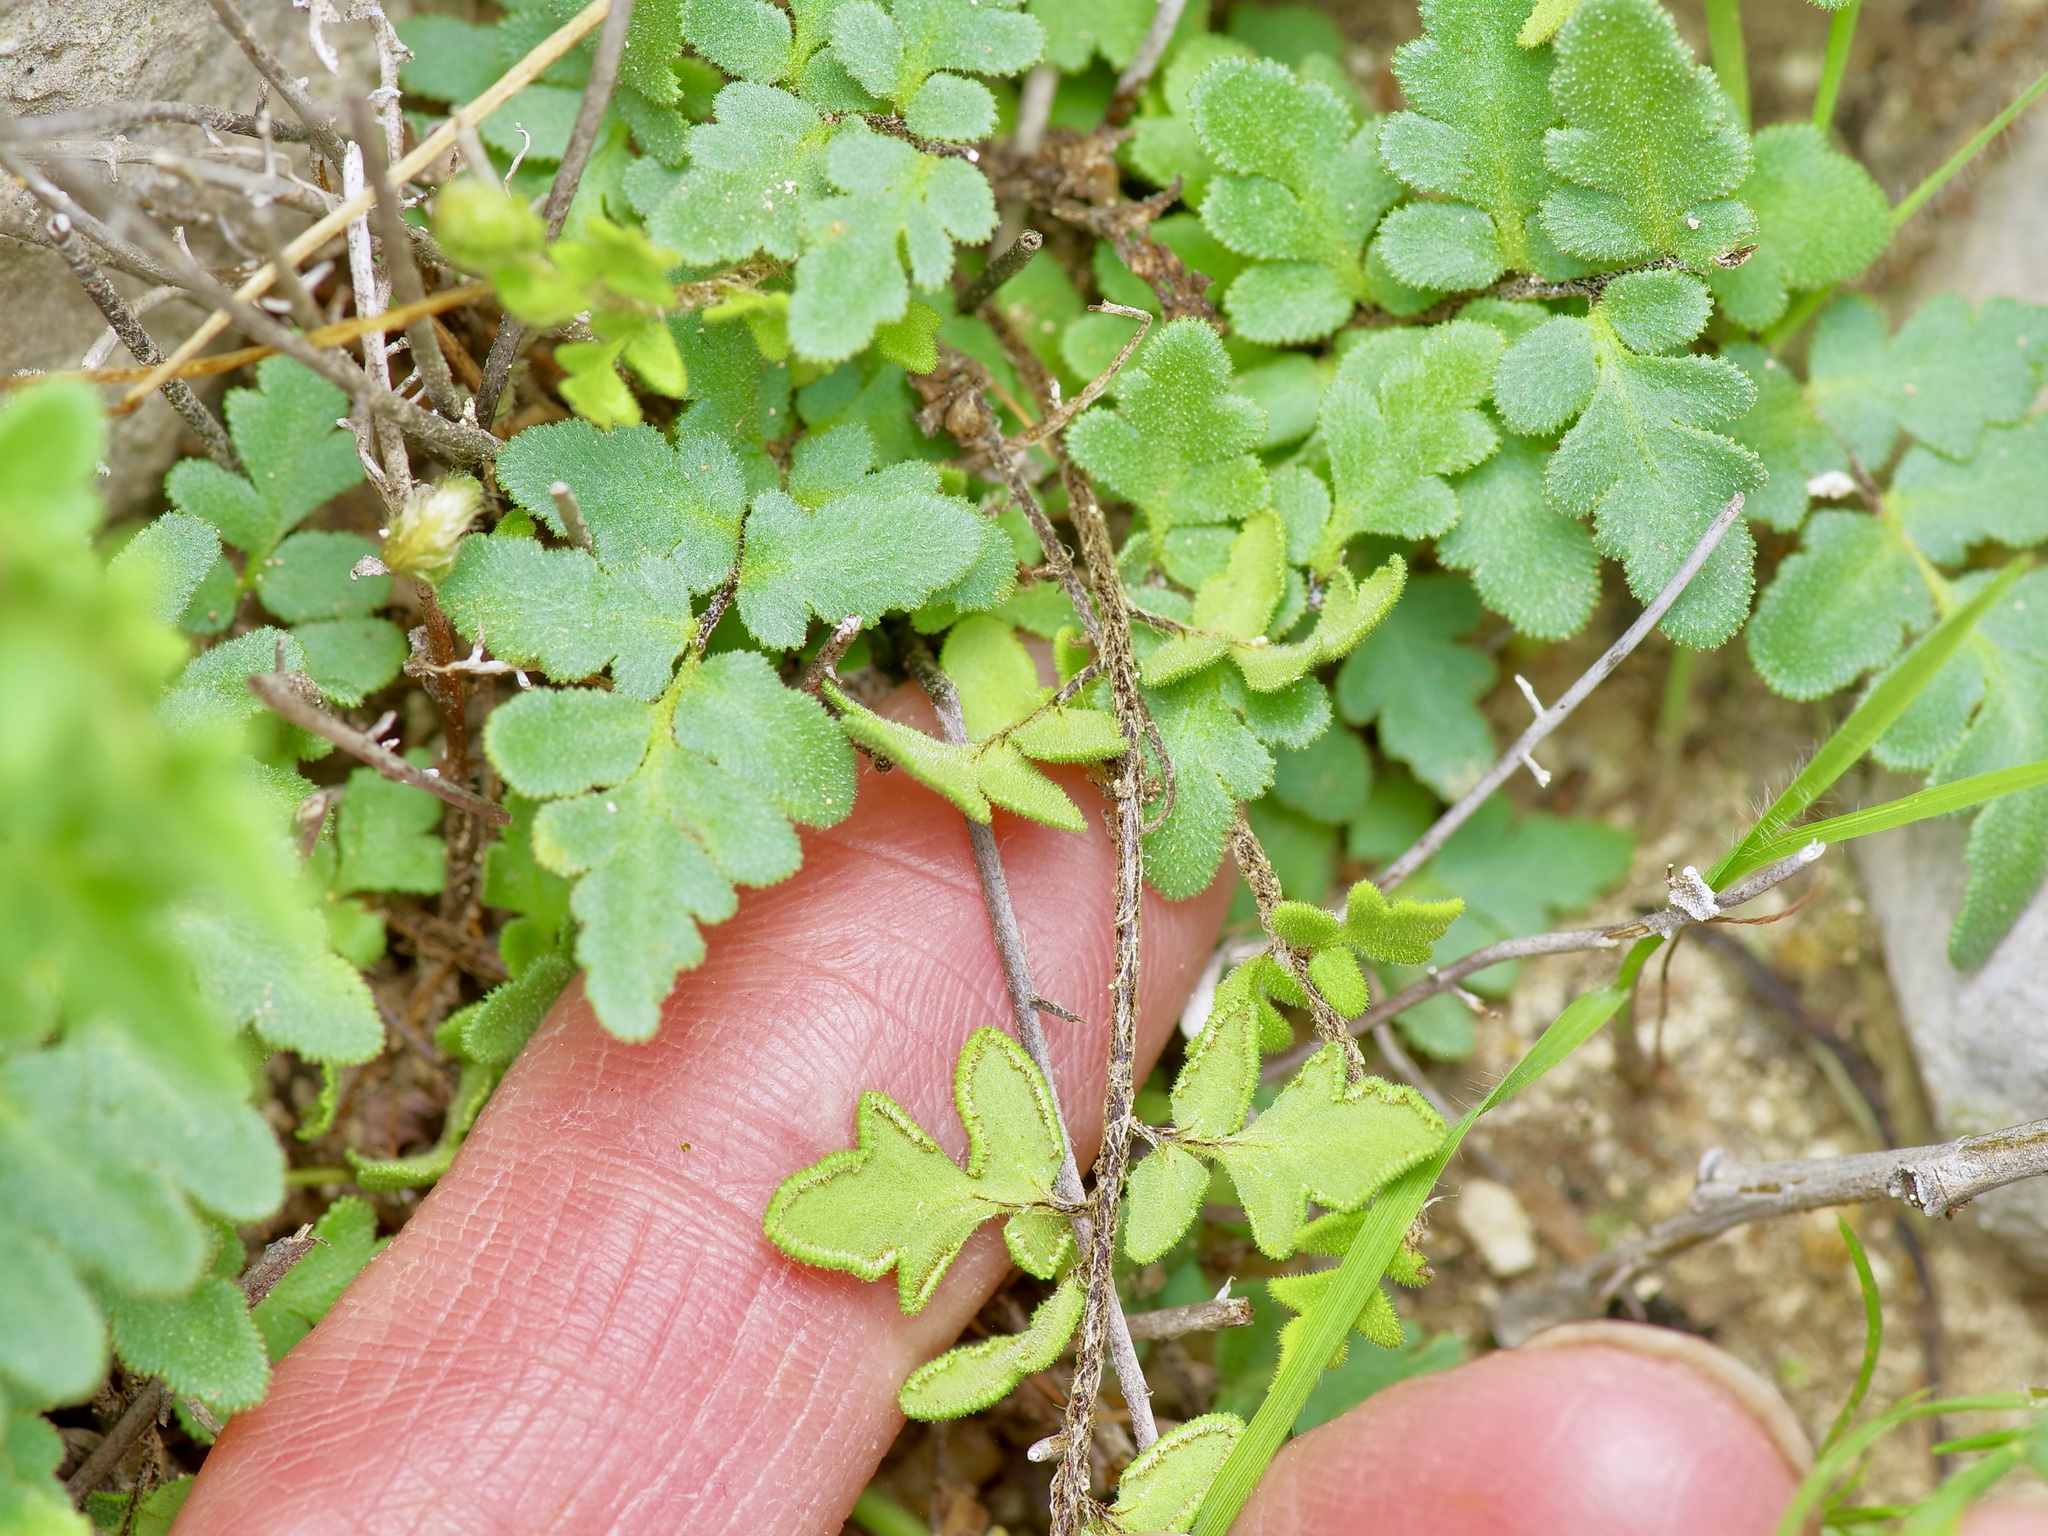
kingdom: Plantae
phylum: Tracheophyta
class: Polypodiopsida
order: Polypodiales
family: Pteridaceae
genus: Myriopteris
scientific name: Myriopteris scabra
